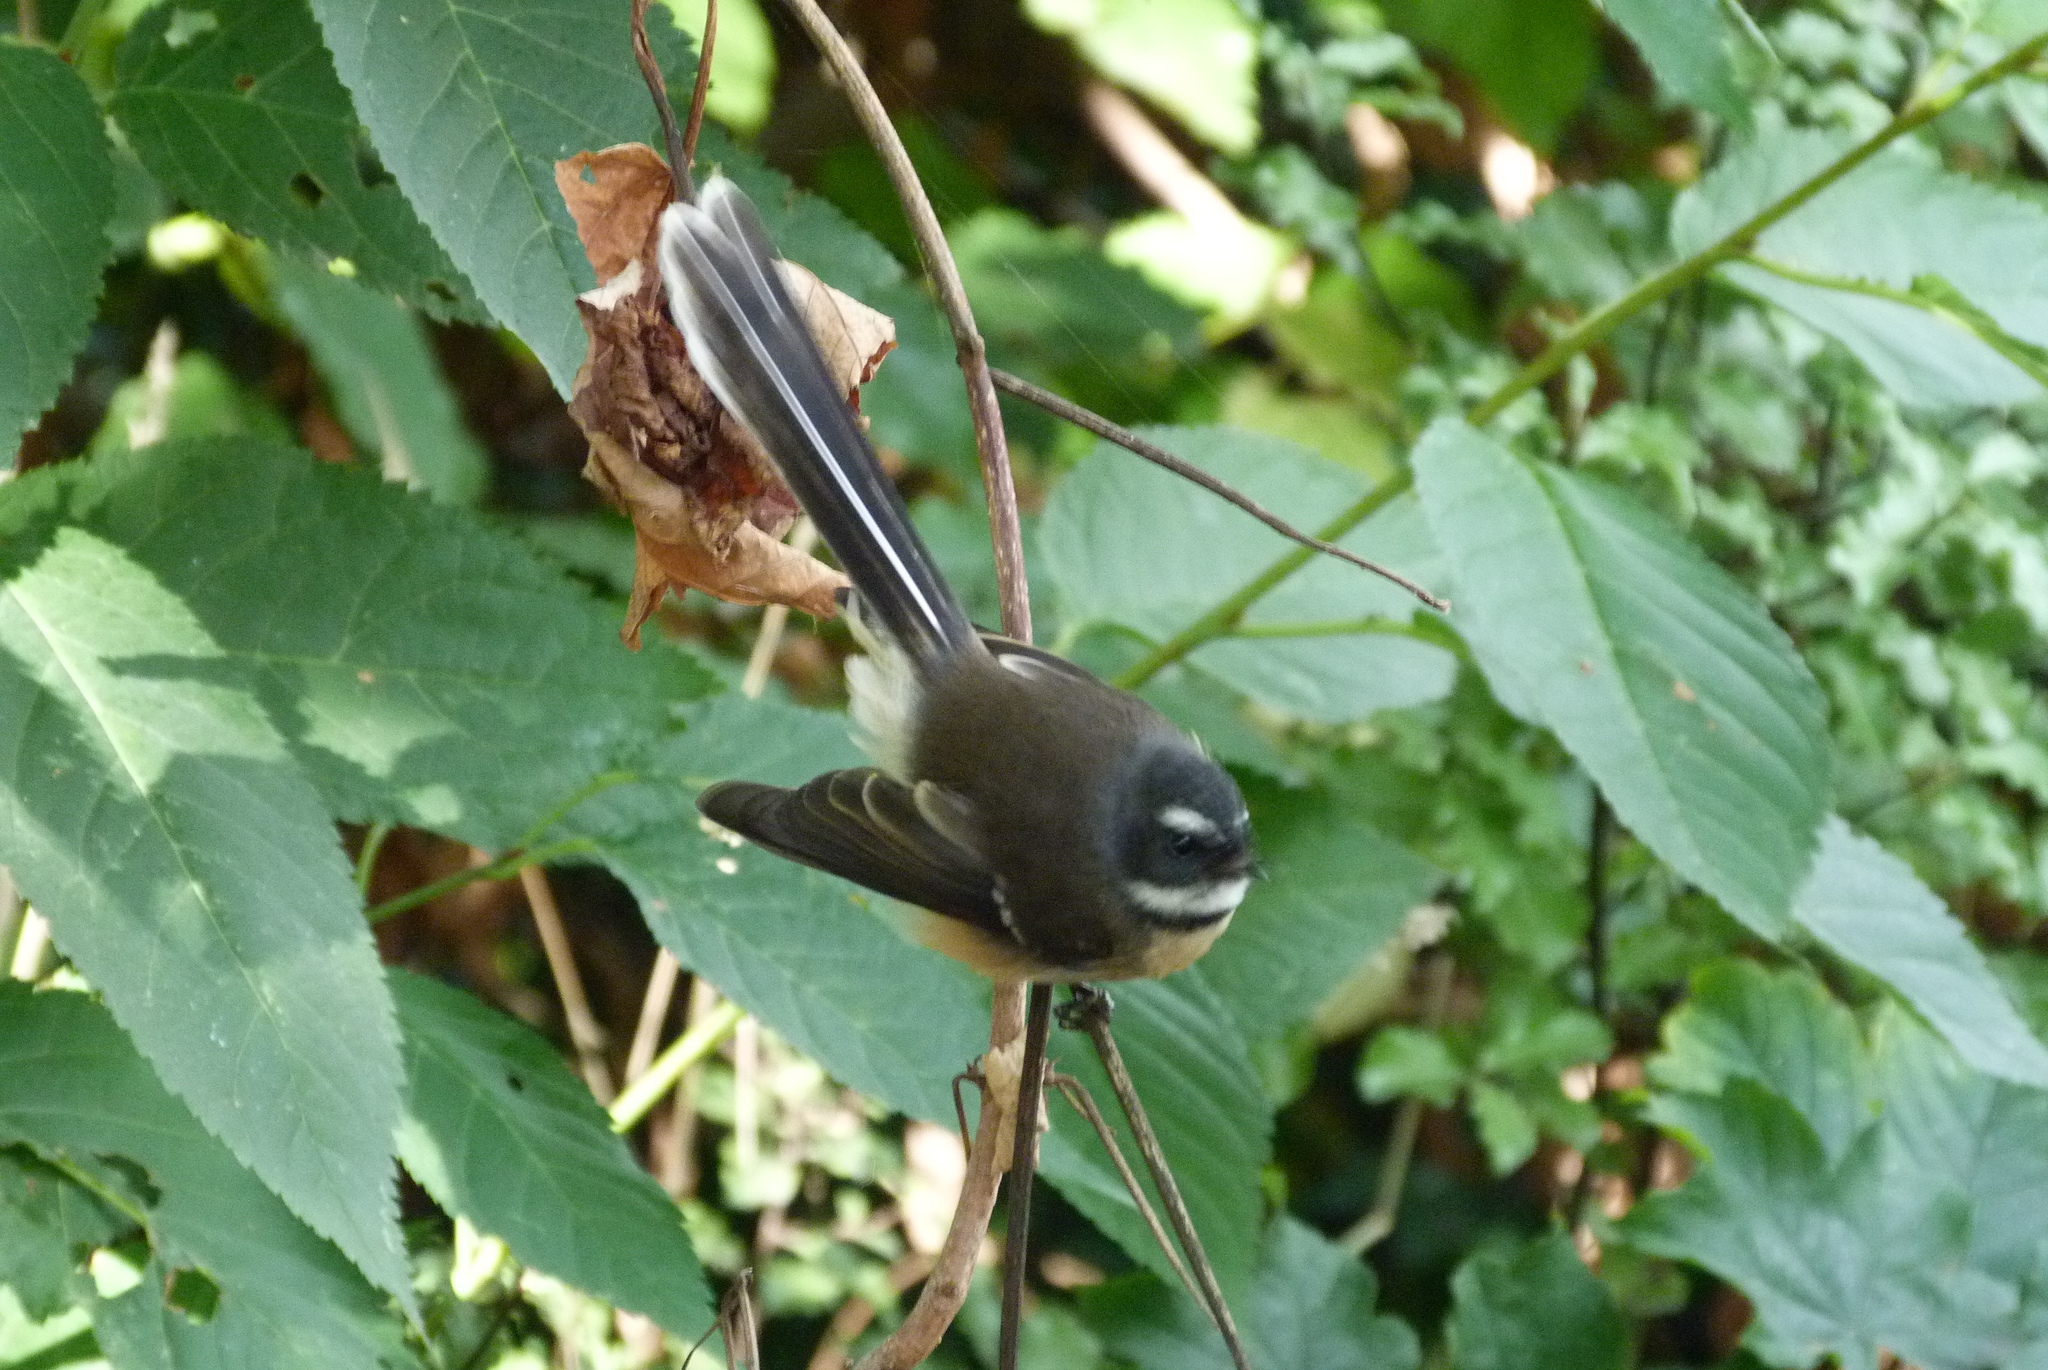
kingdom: Animalia
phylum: Chordata
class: Aves
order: Passeriformes
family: Rhipiduridae
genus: Rhipidura
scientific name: Rhipidura fuliginosa
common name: New zealand fantail
